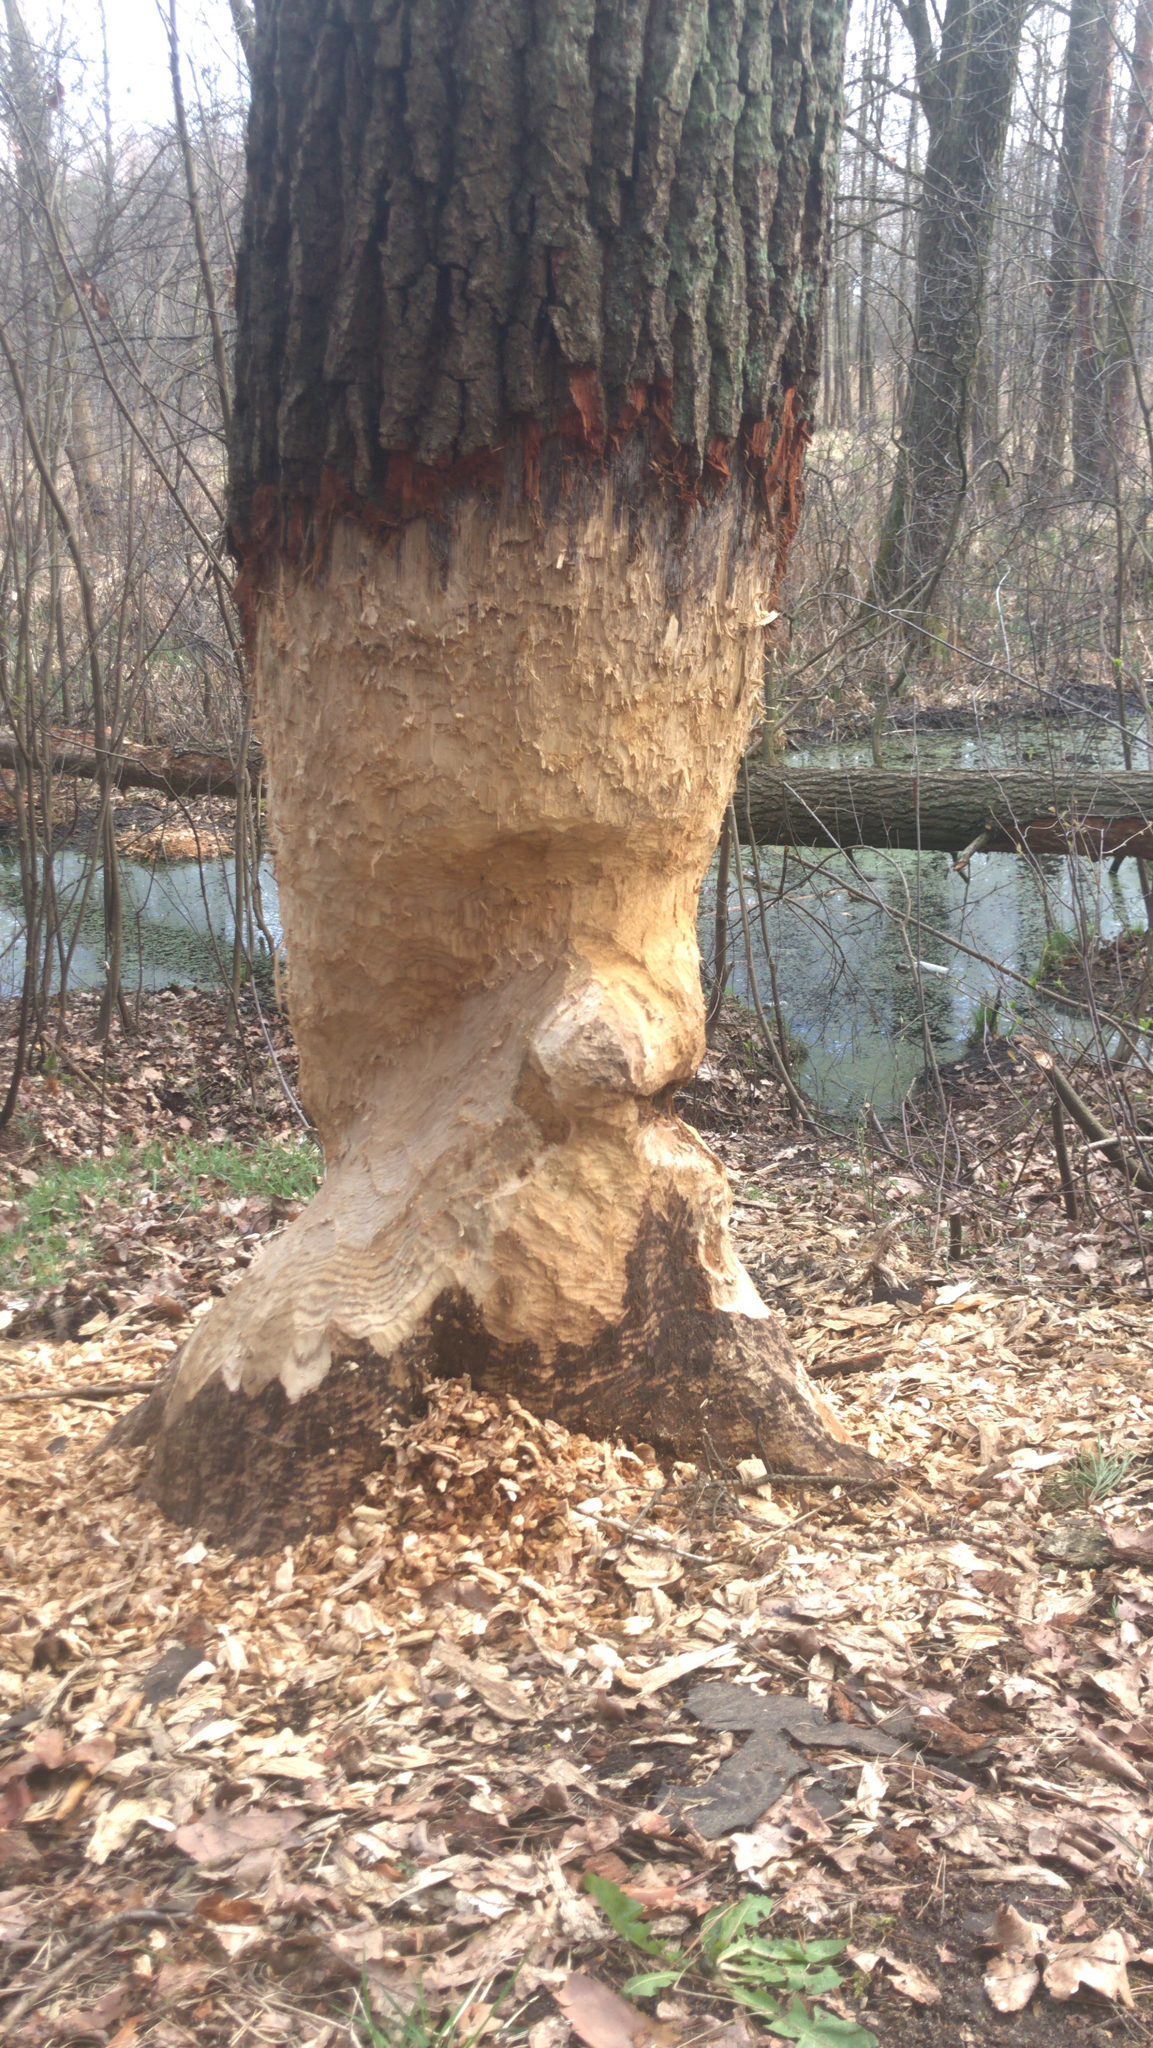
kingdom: Animalia
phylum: Chordata
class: Mammalia
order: Rodentia
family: Castoridae
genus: Castor
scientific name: Castor fiber
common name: Eurasian beaver
